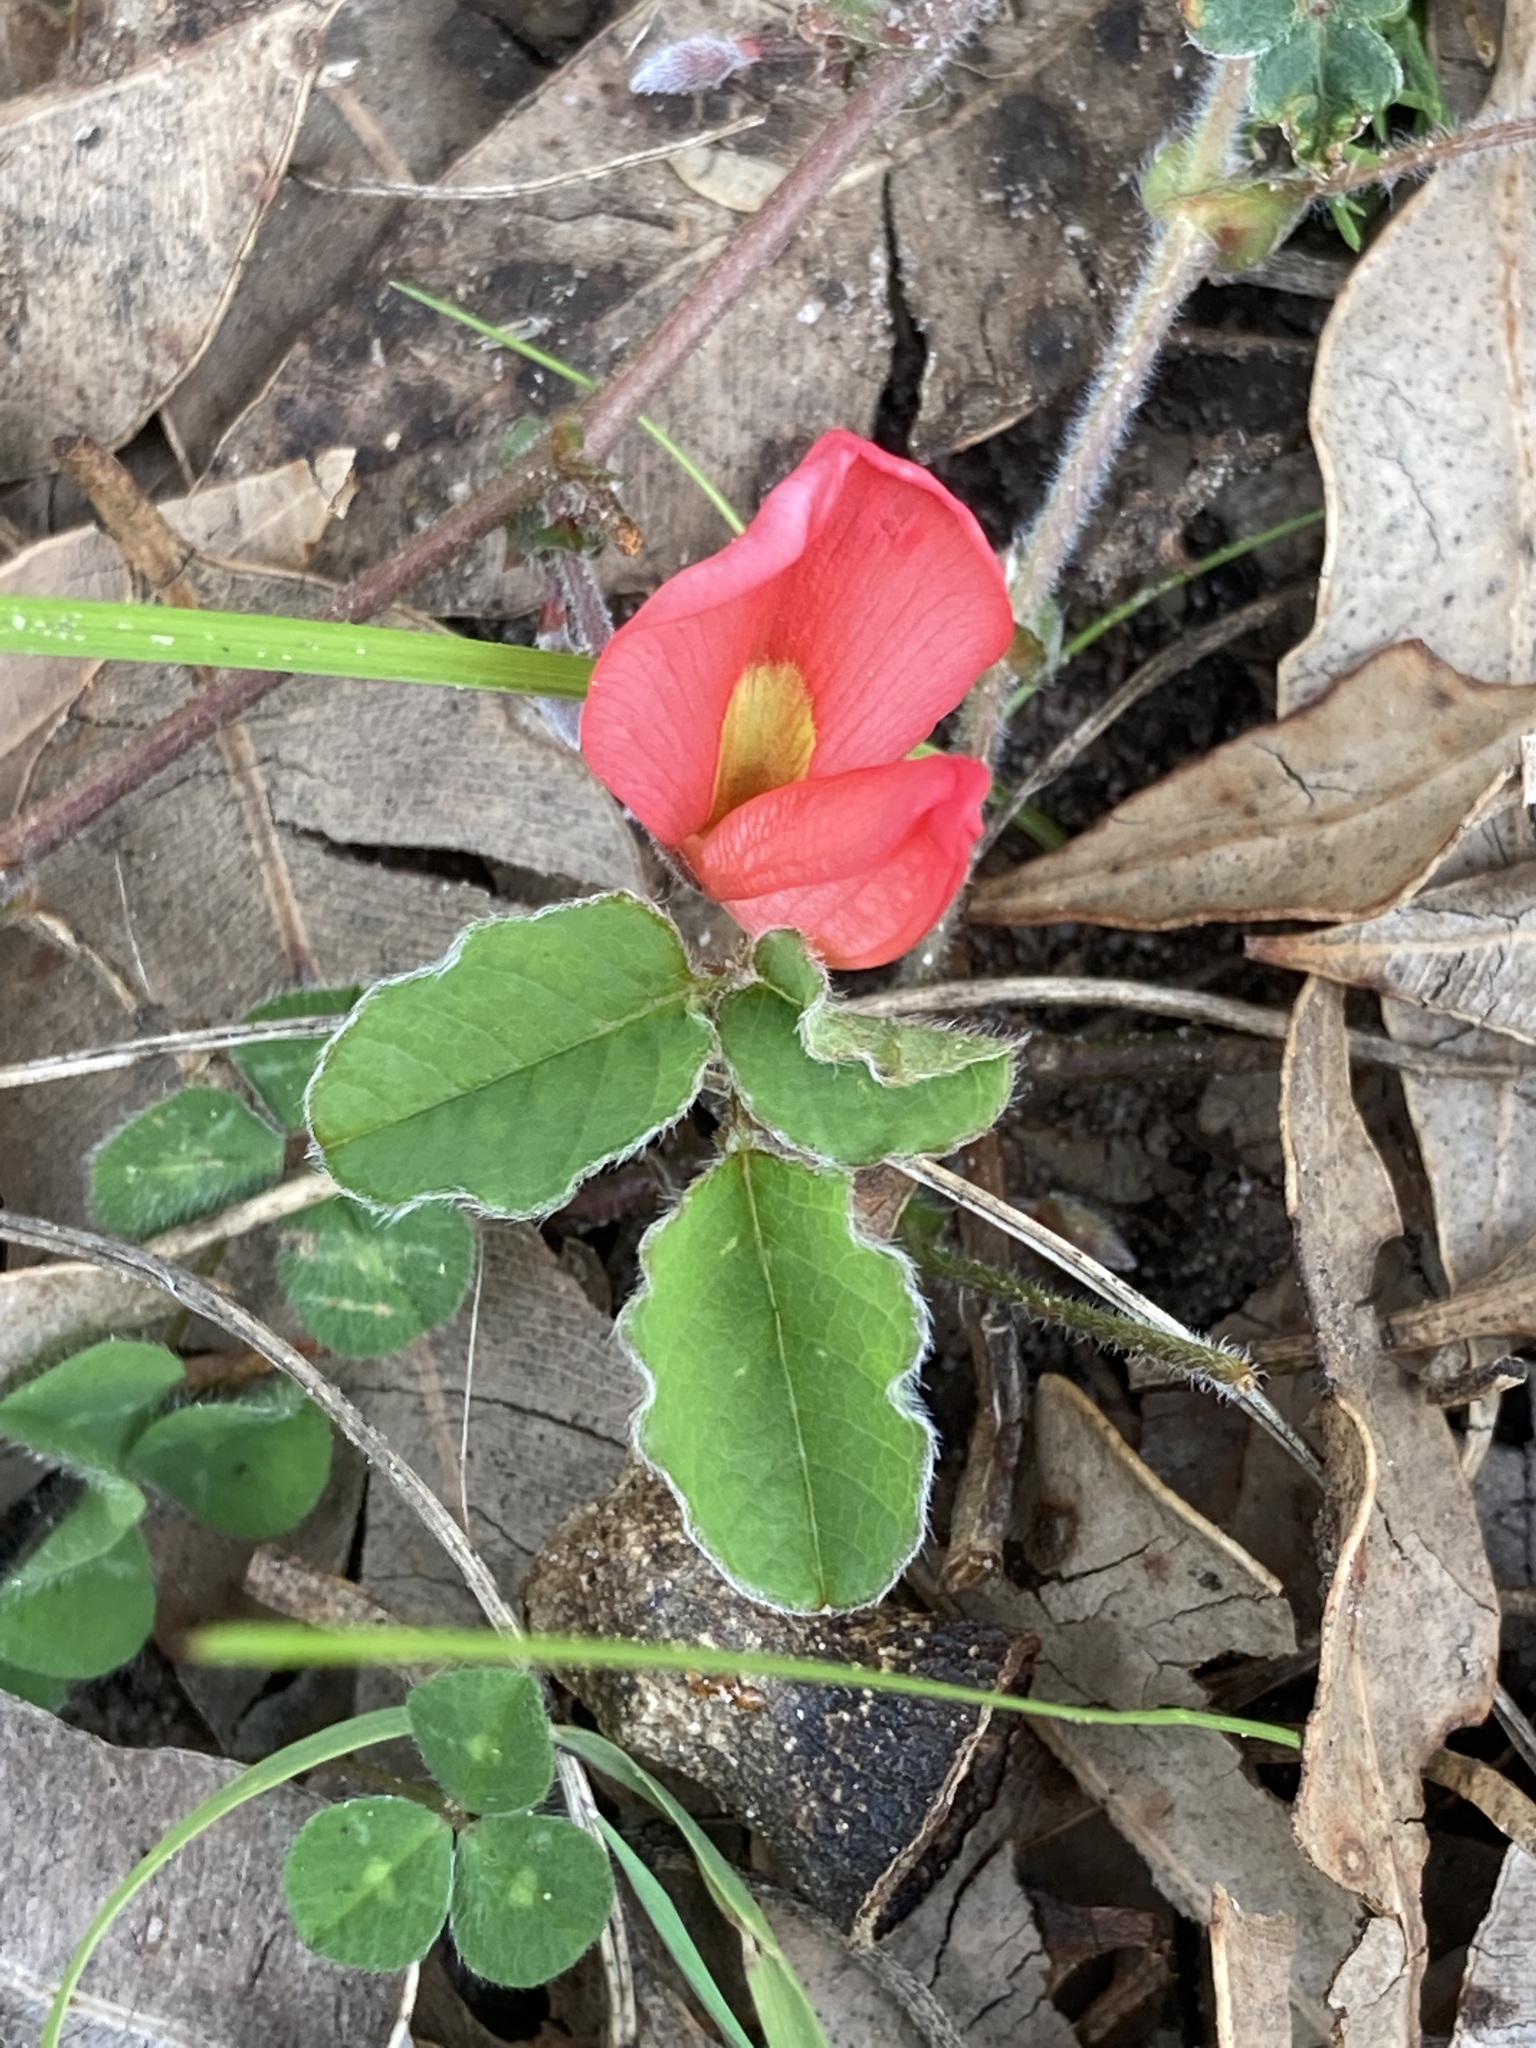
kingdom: Plantae
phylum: Tracheophyta
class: Magnoliopsida
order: Fabales
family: Fabaceae
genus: Kennedia
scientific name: Kennedia prostrata
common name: Running-postman
